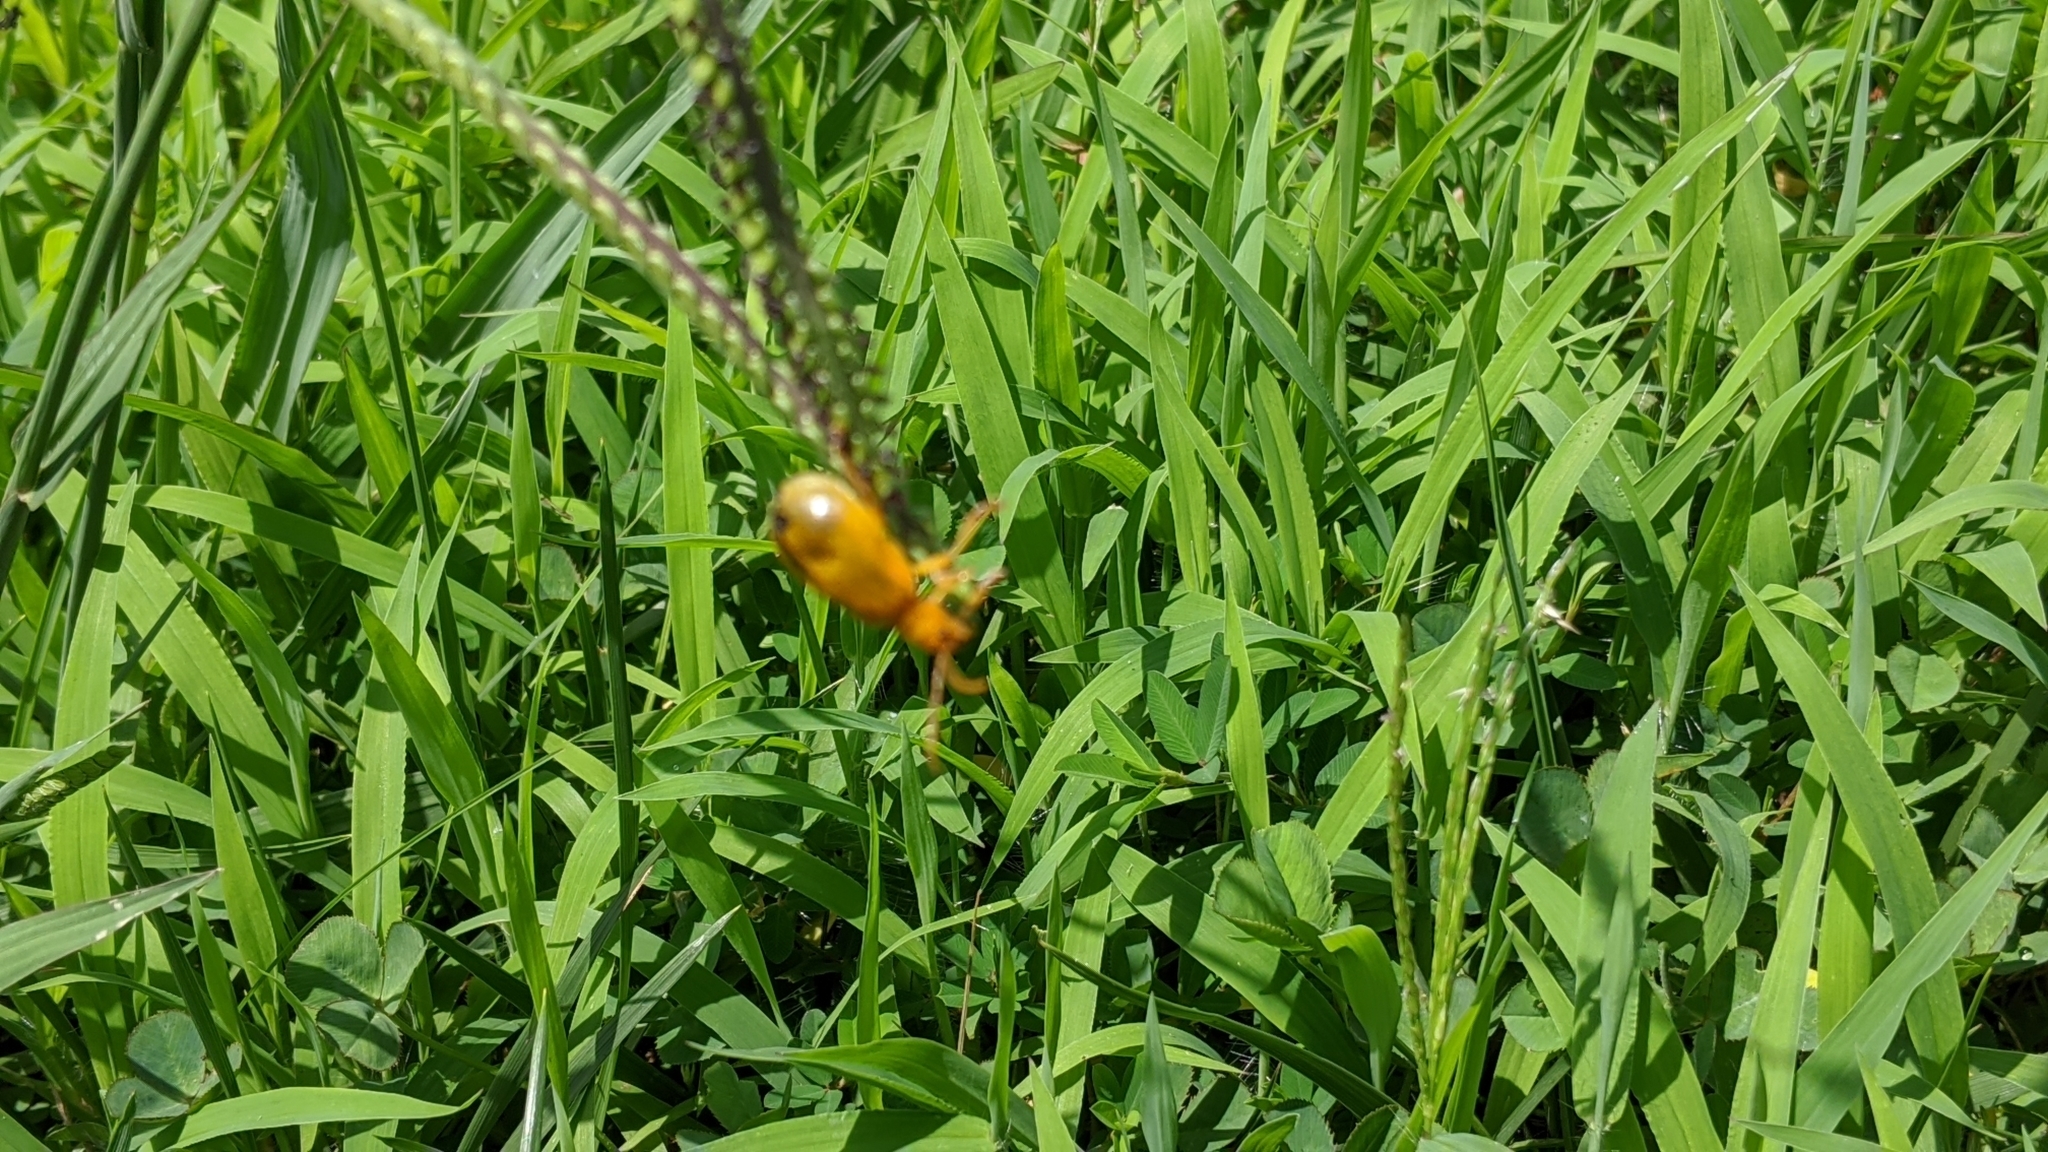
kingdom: Animalia
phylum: Arthropoda
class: Insecta
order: Coleoptera
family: Chrysomelidae
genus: Monocesta
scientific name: Monocesta coryli
